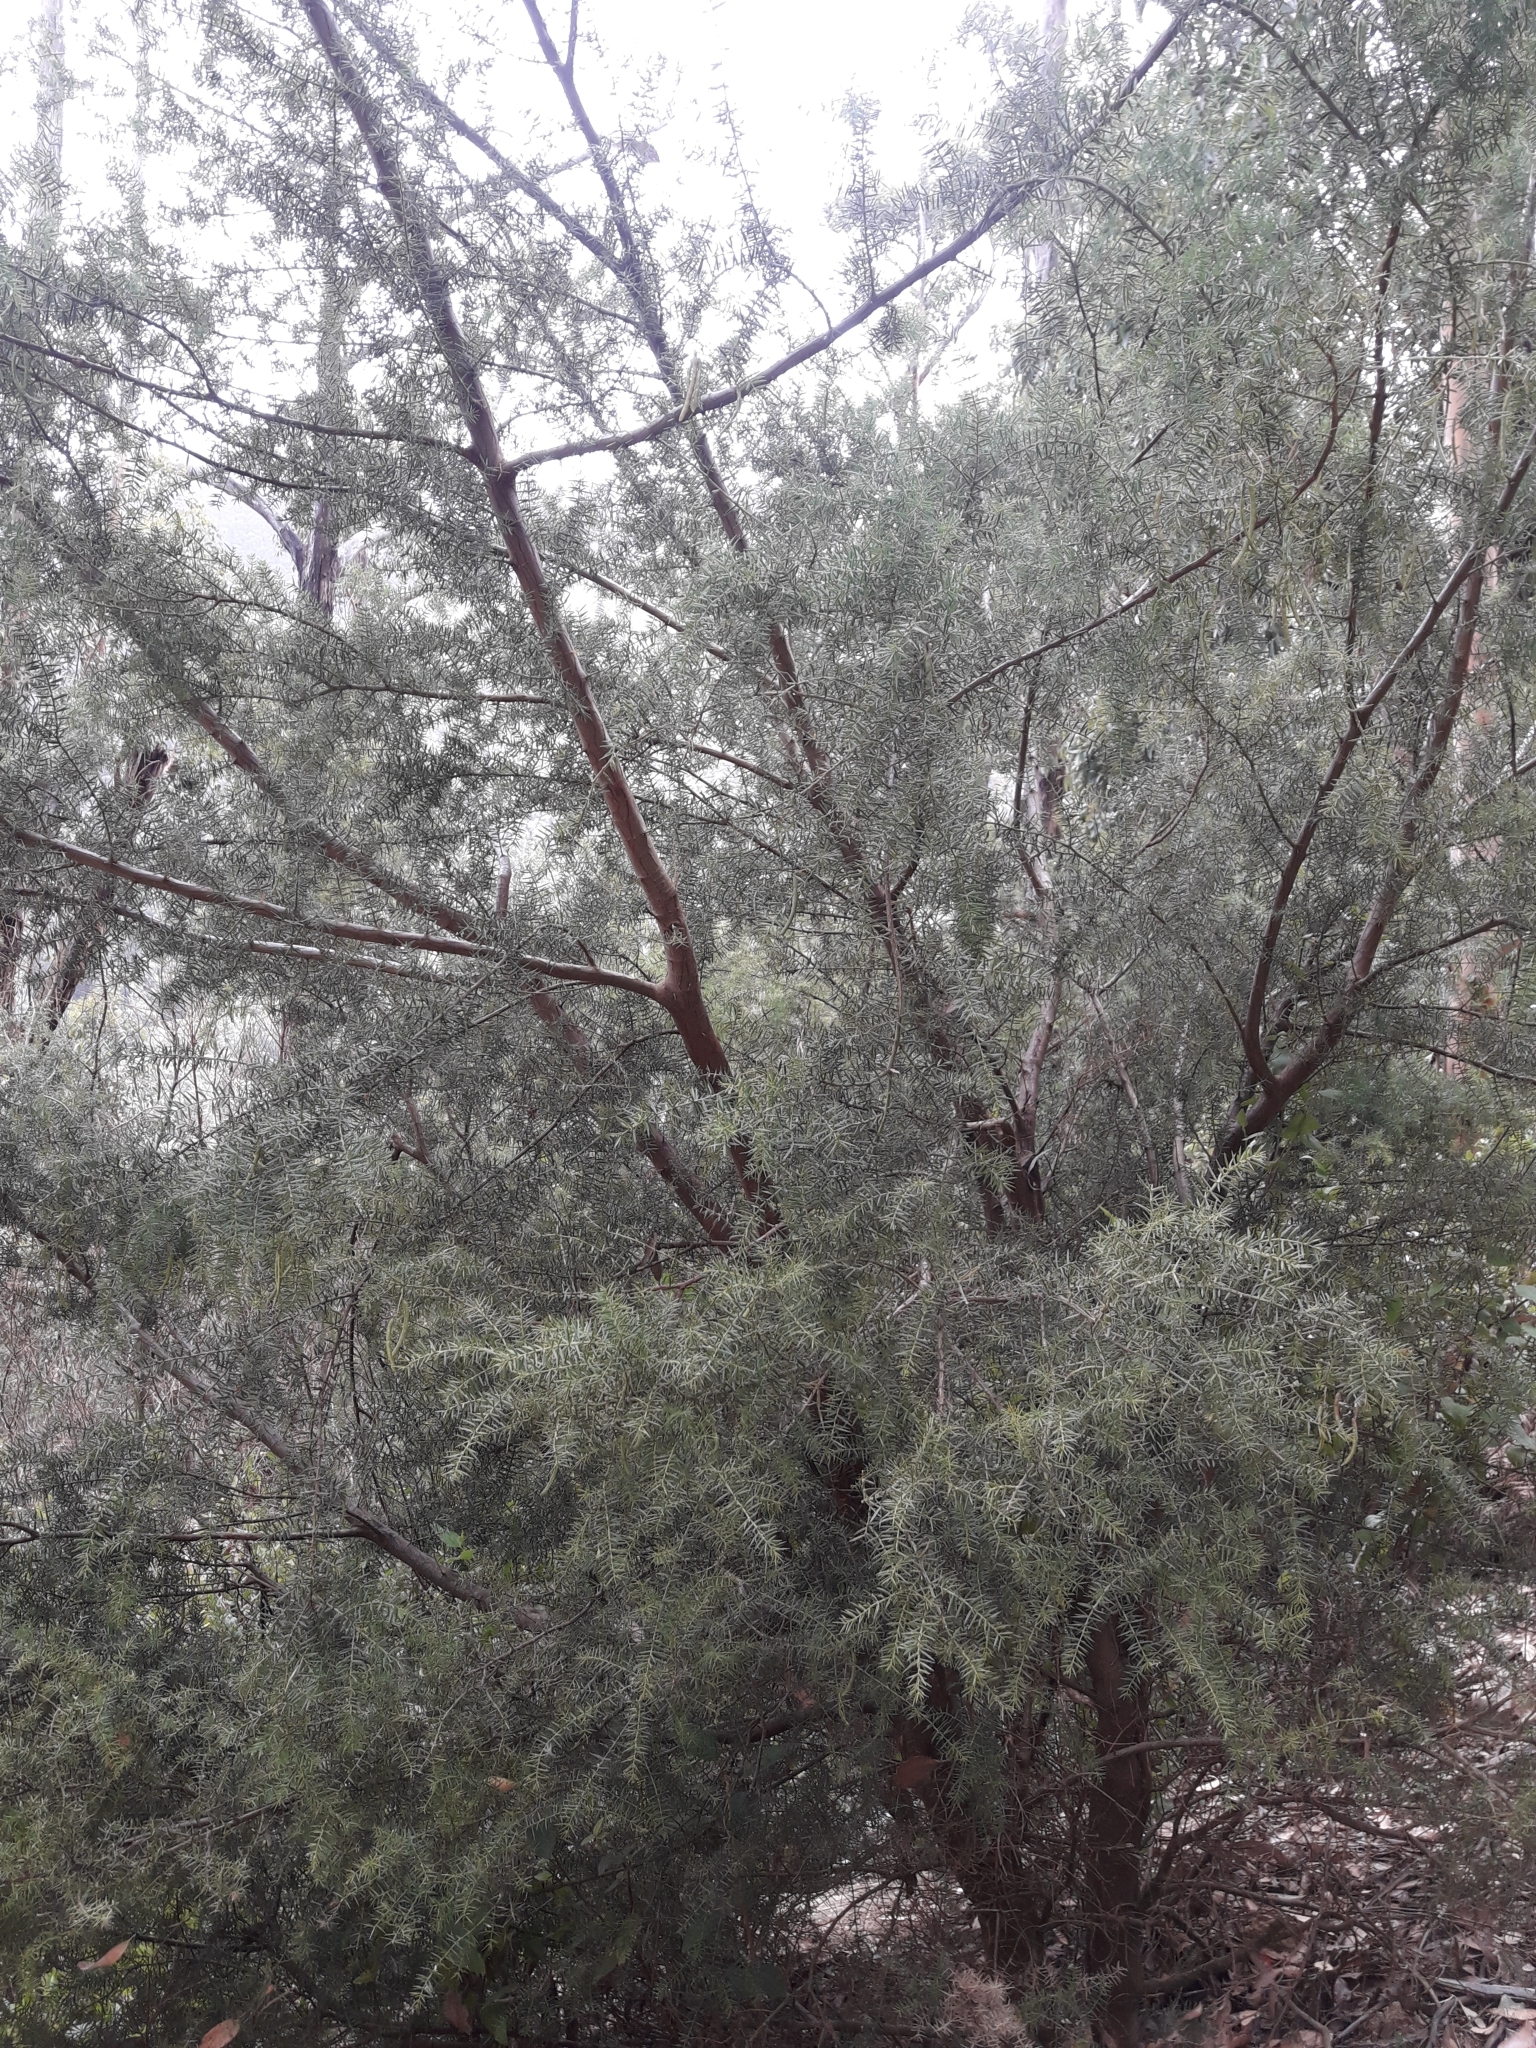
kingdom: Plantae
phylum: Tracheophyta
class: Magnoliopsida
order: Fabales
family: Fabaceae
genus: Acacia
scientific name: Acacia verticillata
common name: Prickly moses
